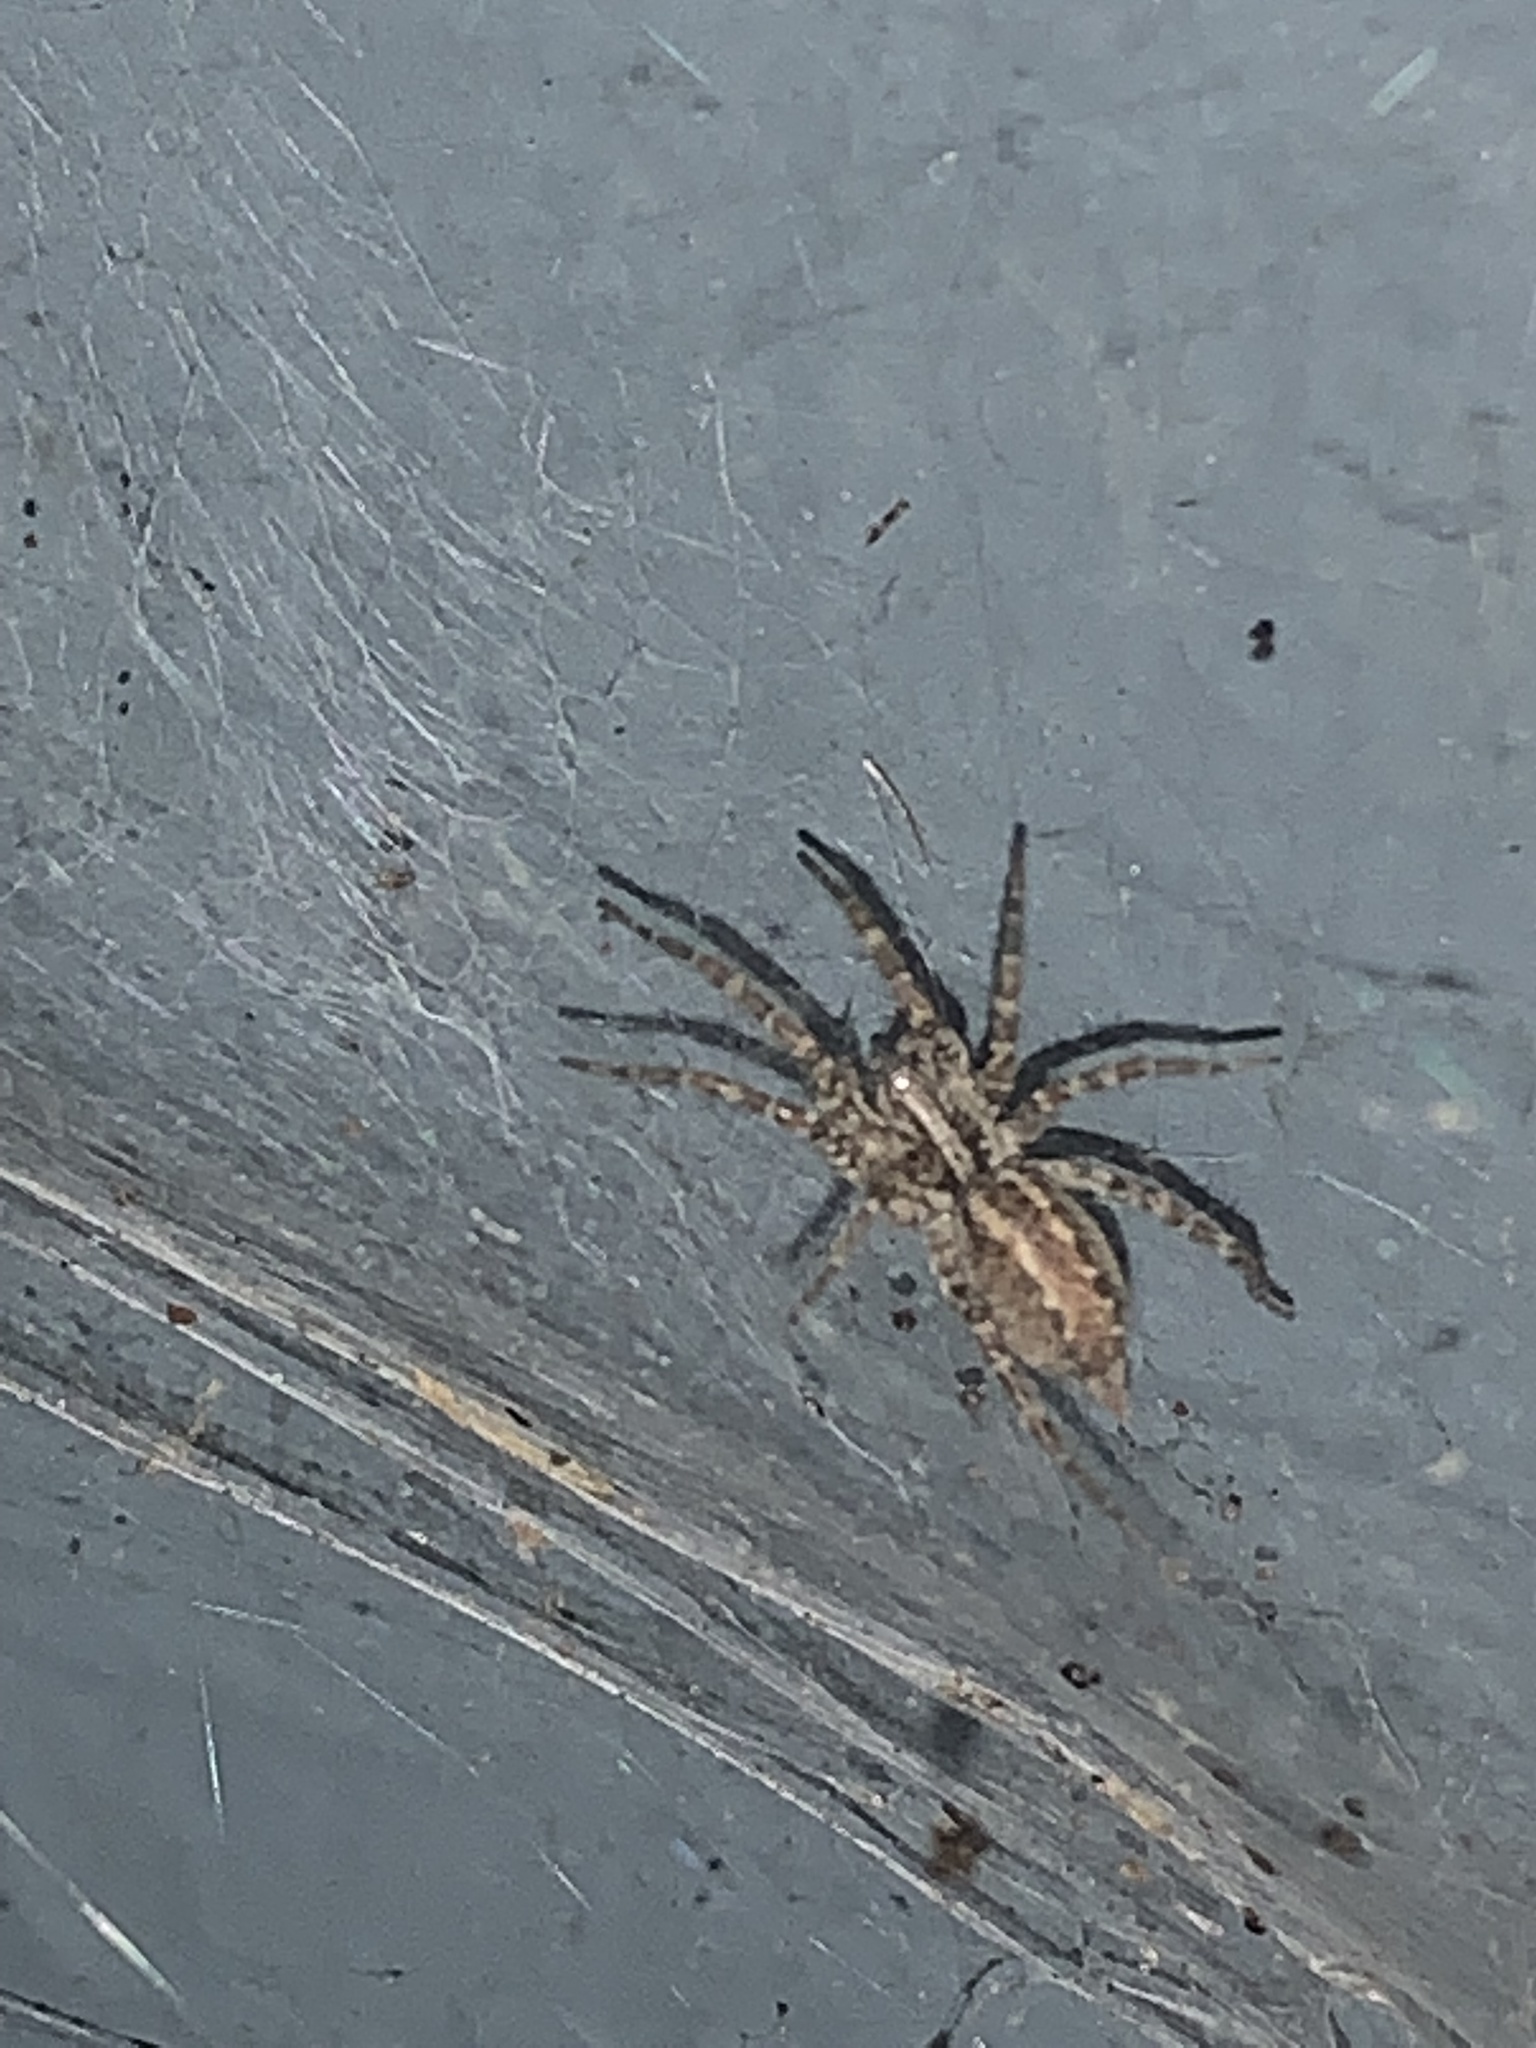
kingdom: Animalia
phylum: Arthropoda
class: Arachnida
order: Araneae
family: Agelenidae
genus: Barronopsis
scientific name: Barronopsis
